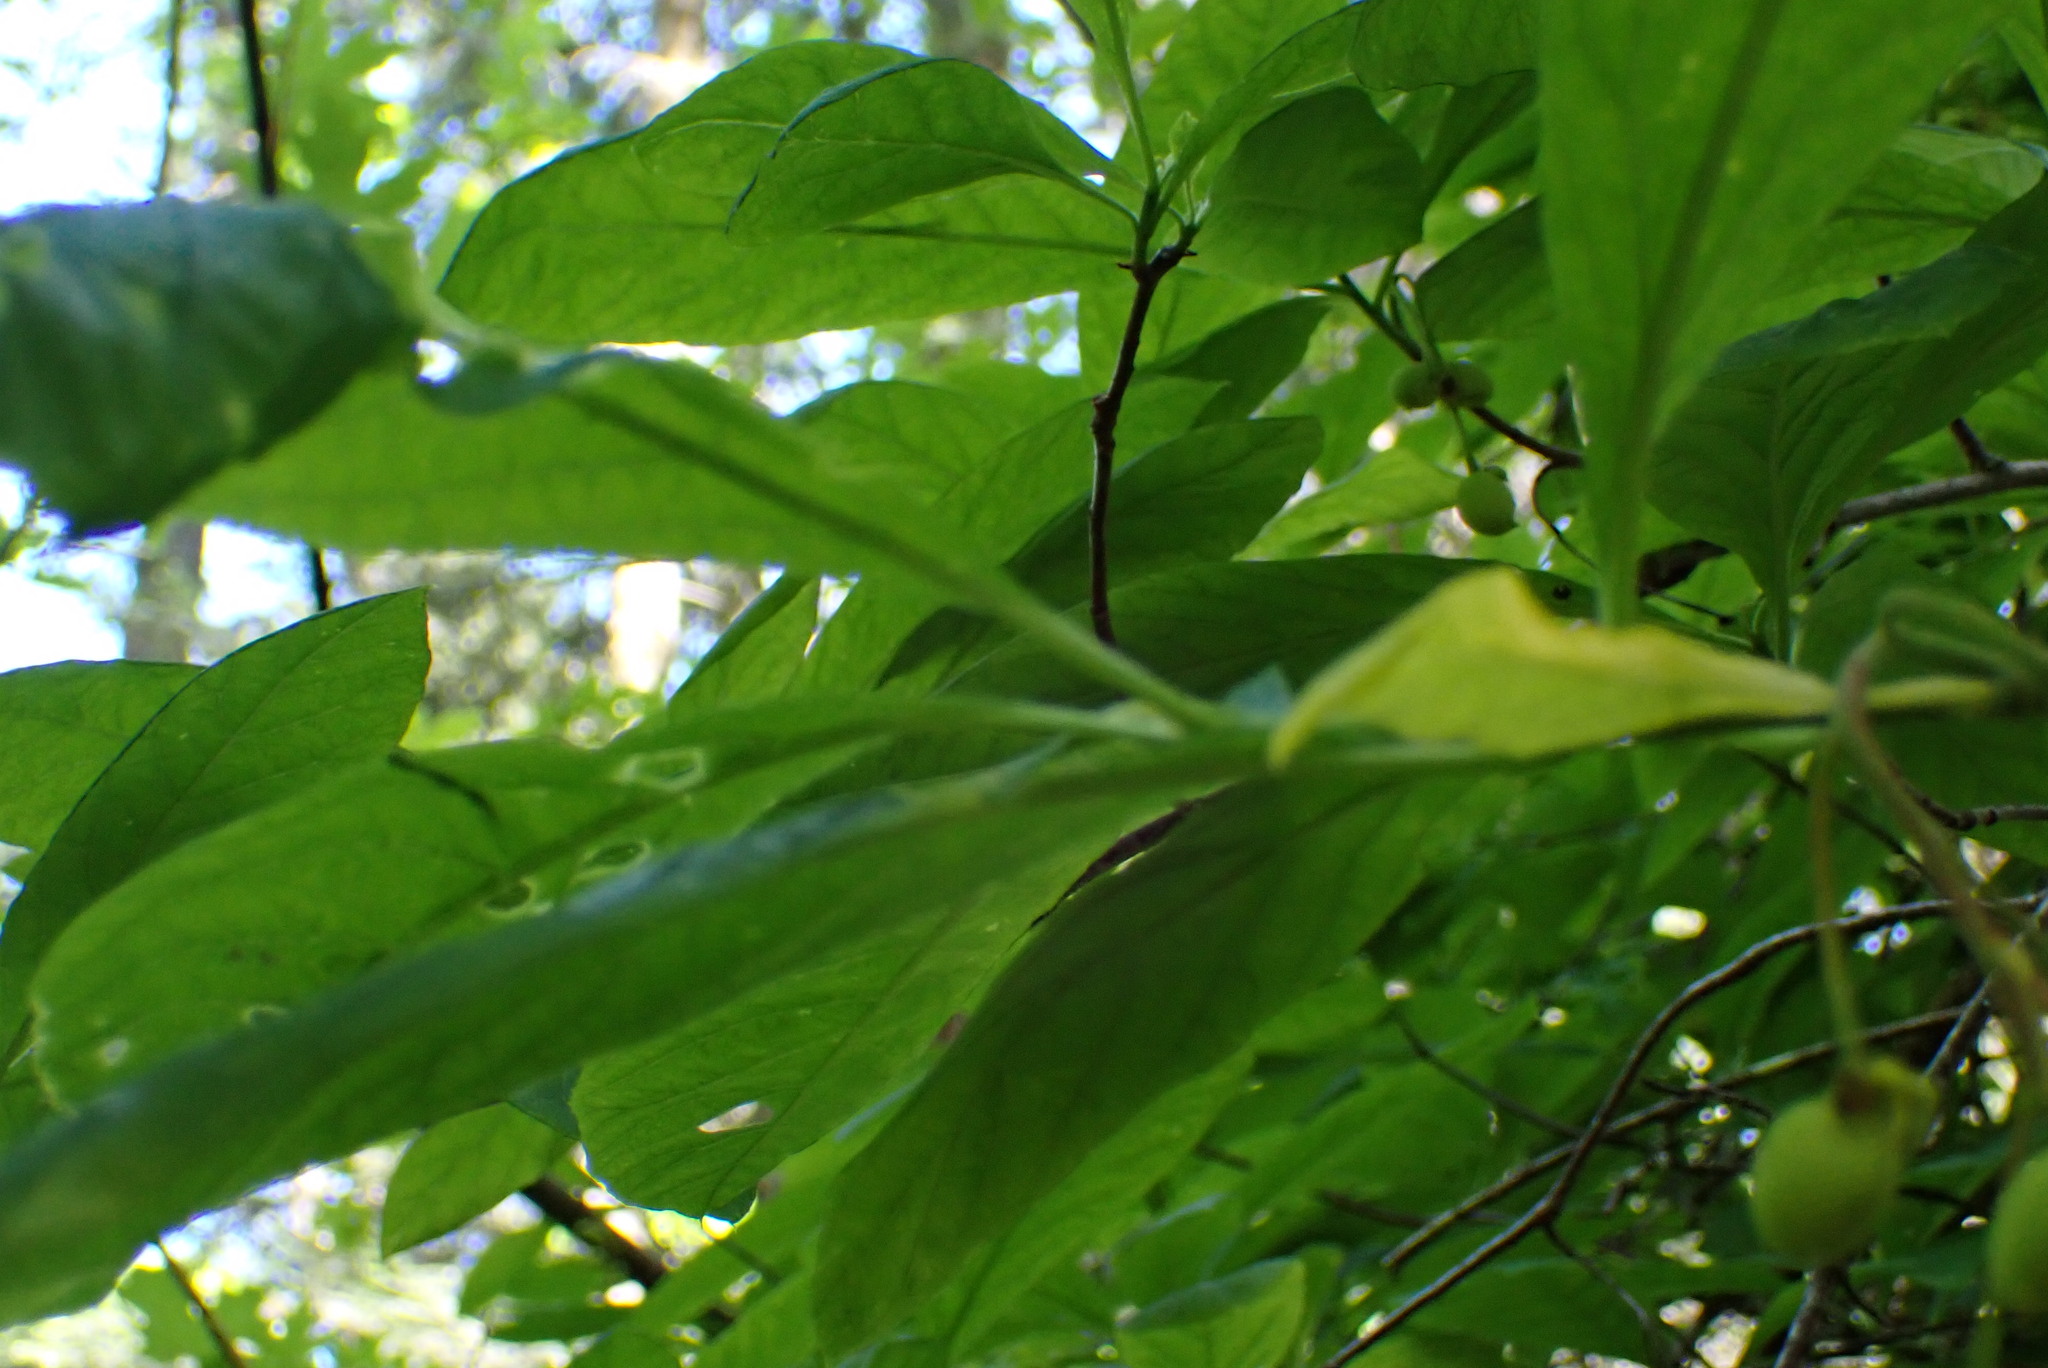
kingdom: Plantae
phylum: Tracheophyta
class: Magnoliopsida
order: Rosales
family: Rosaceae
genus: Oemleria
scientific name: Oemleria cerasiformis
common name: Osoberry
